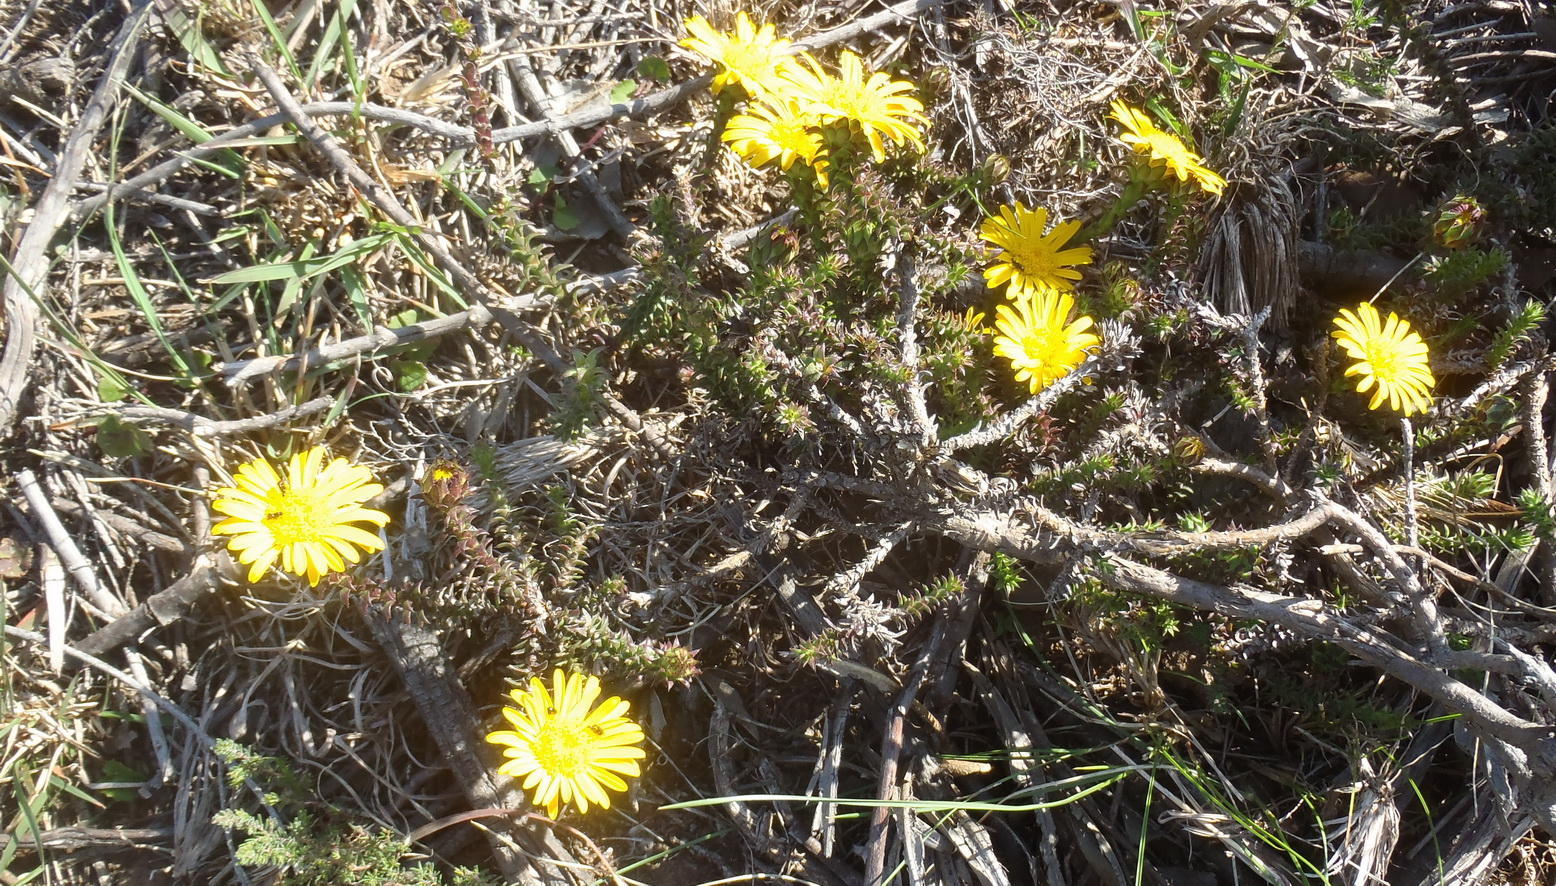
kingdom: Plantae
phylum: Tracheophyta
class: Magnoliopsida
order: Asterales
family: Asteraceae
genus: Oedera
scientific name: Oedera imbricata
